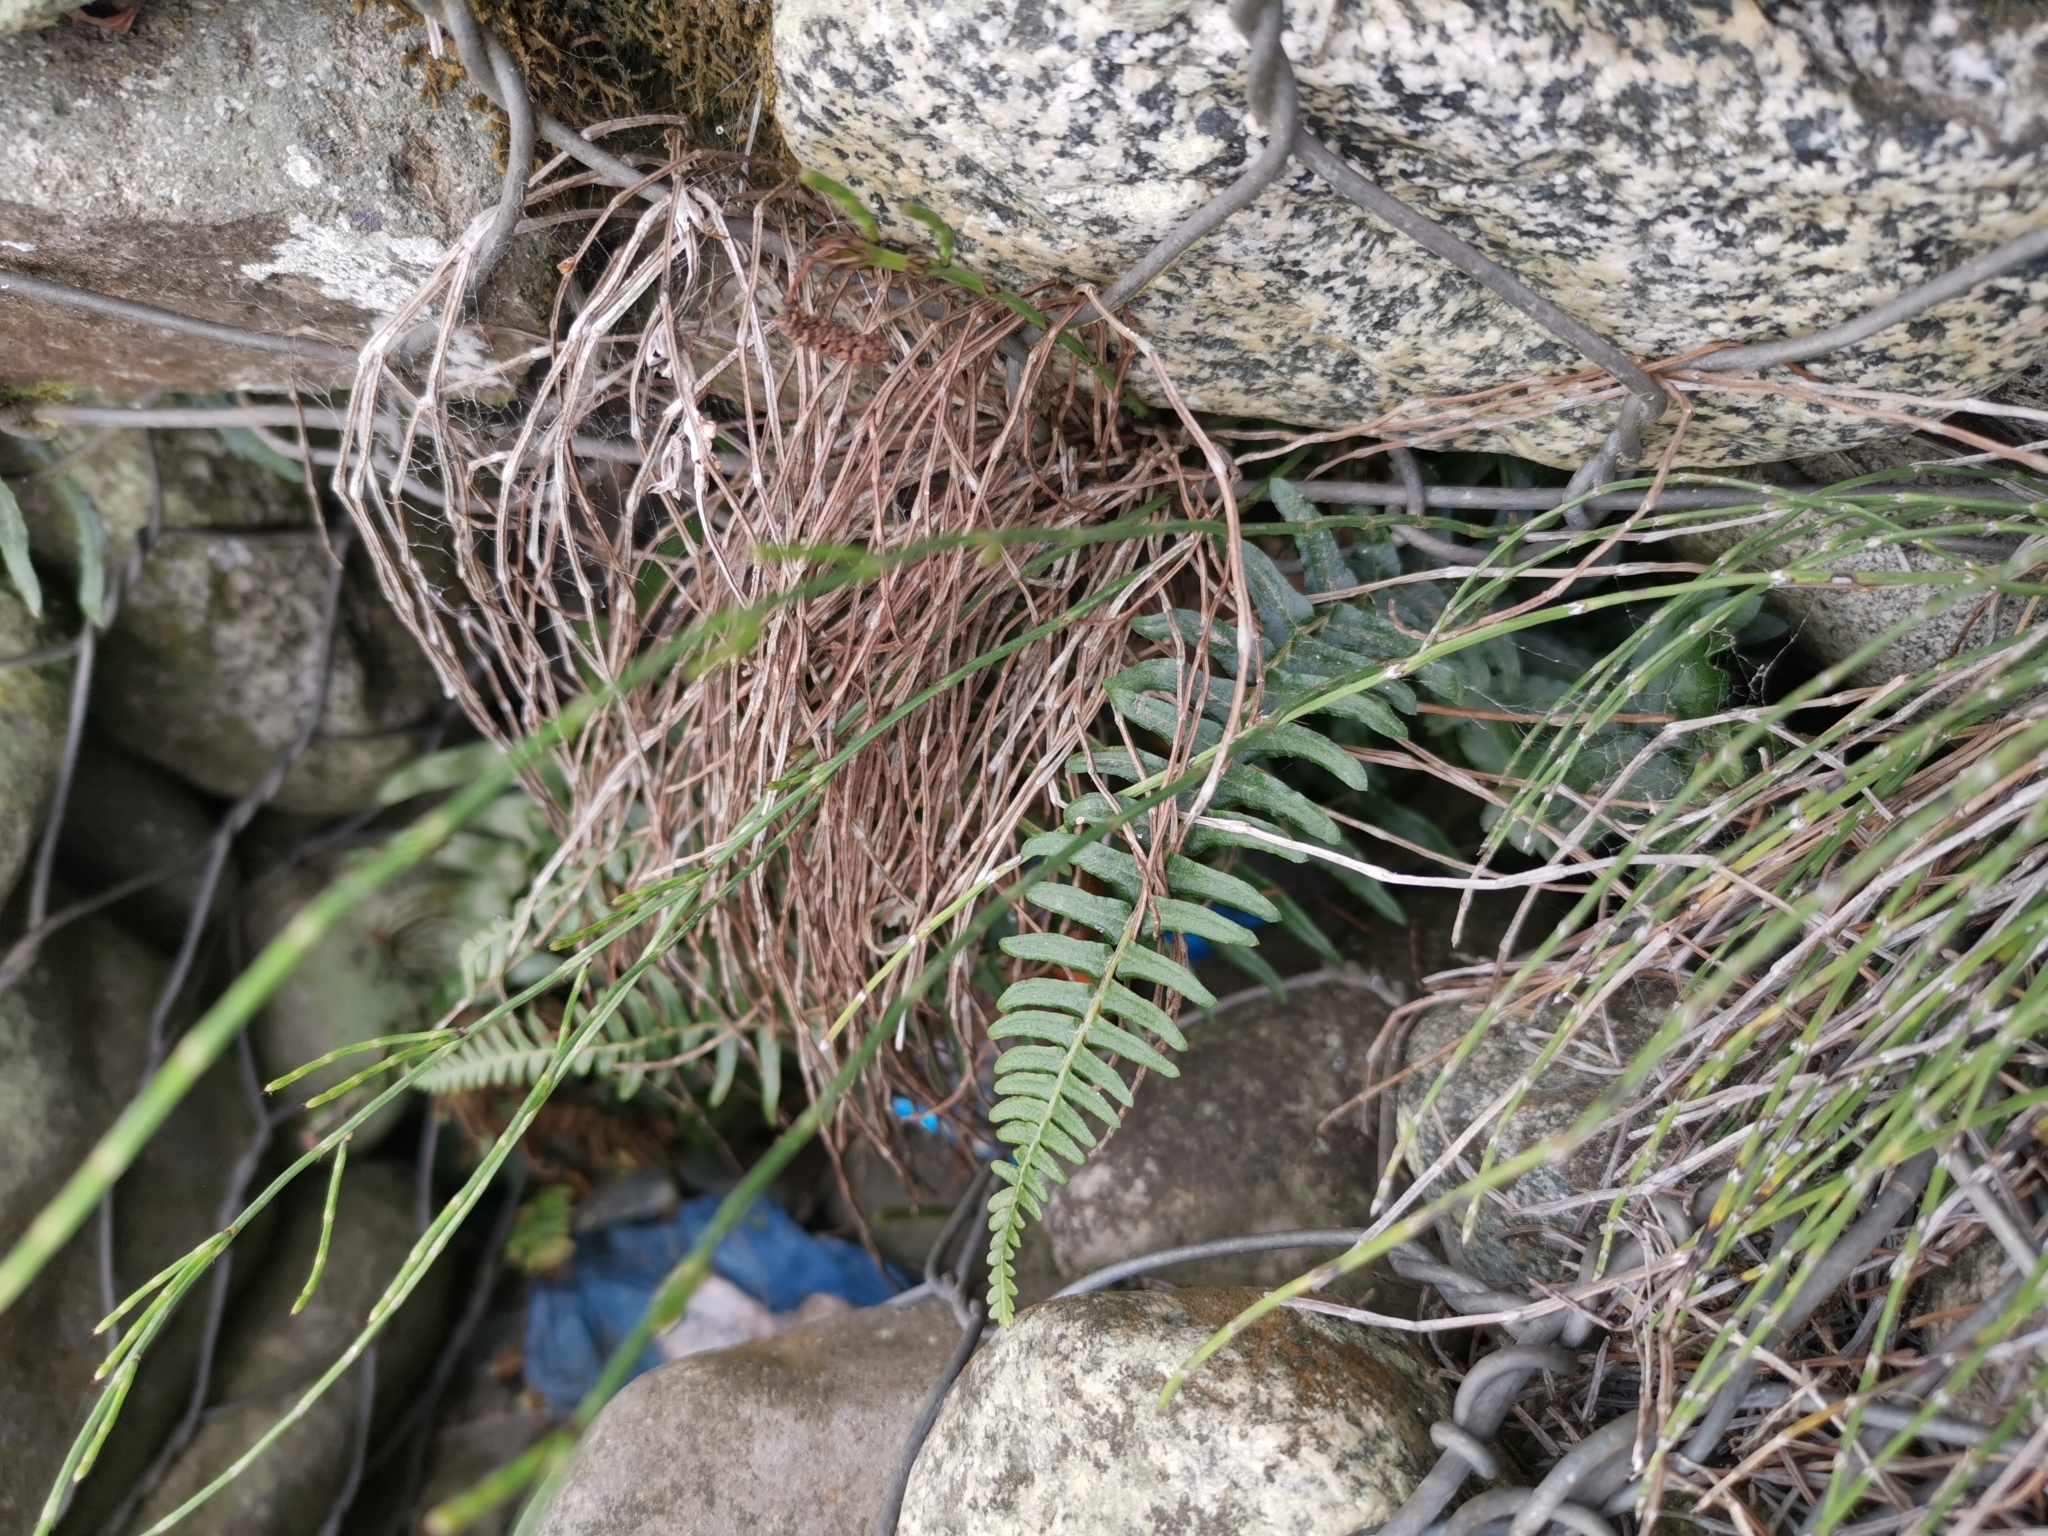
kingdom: Plantae
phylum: Tracheophyta
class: Polypodiopsida
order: Polypodiales
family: Blechnaceae
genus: Blechnum
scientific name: Blechnum hastatum
